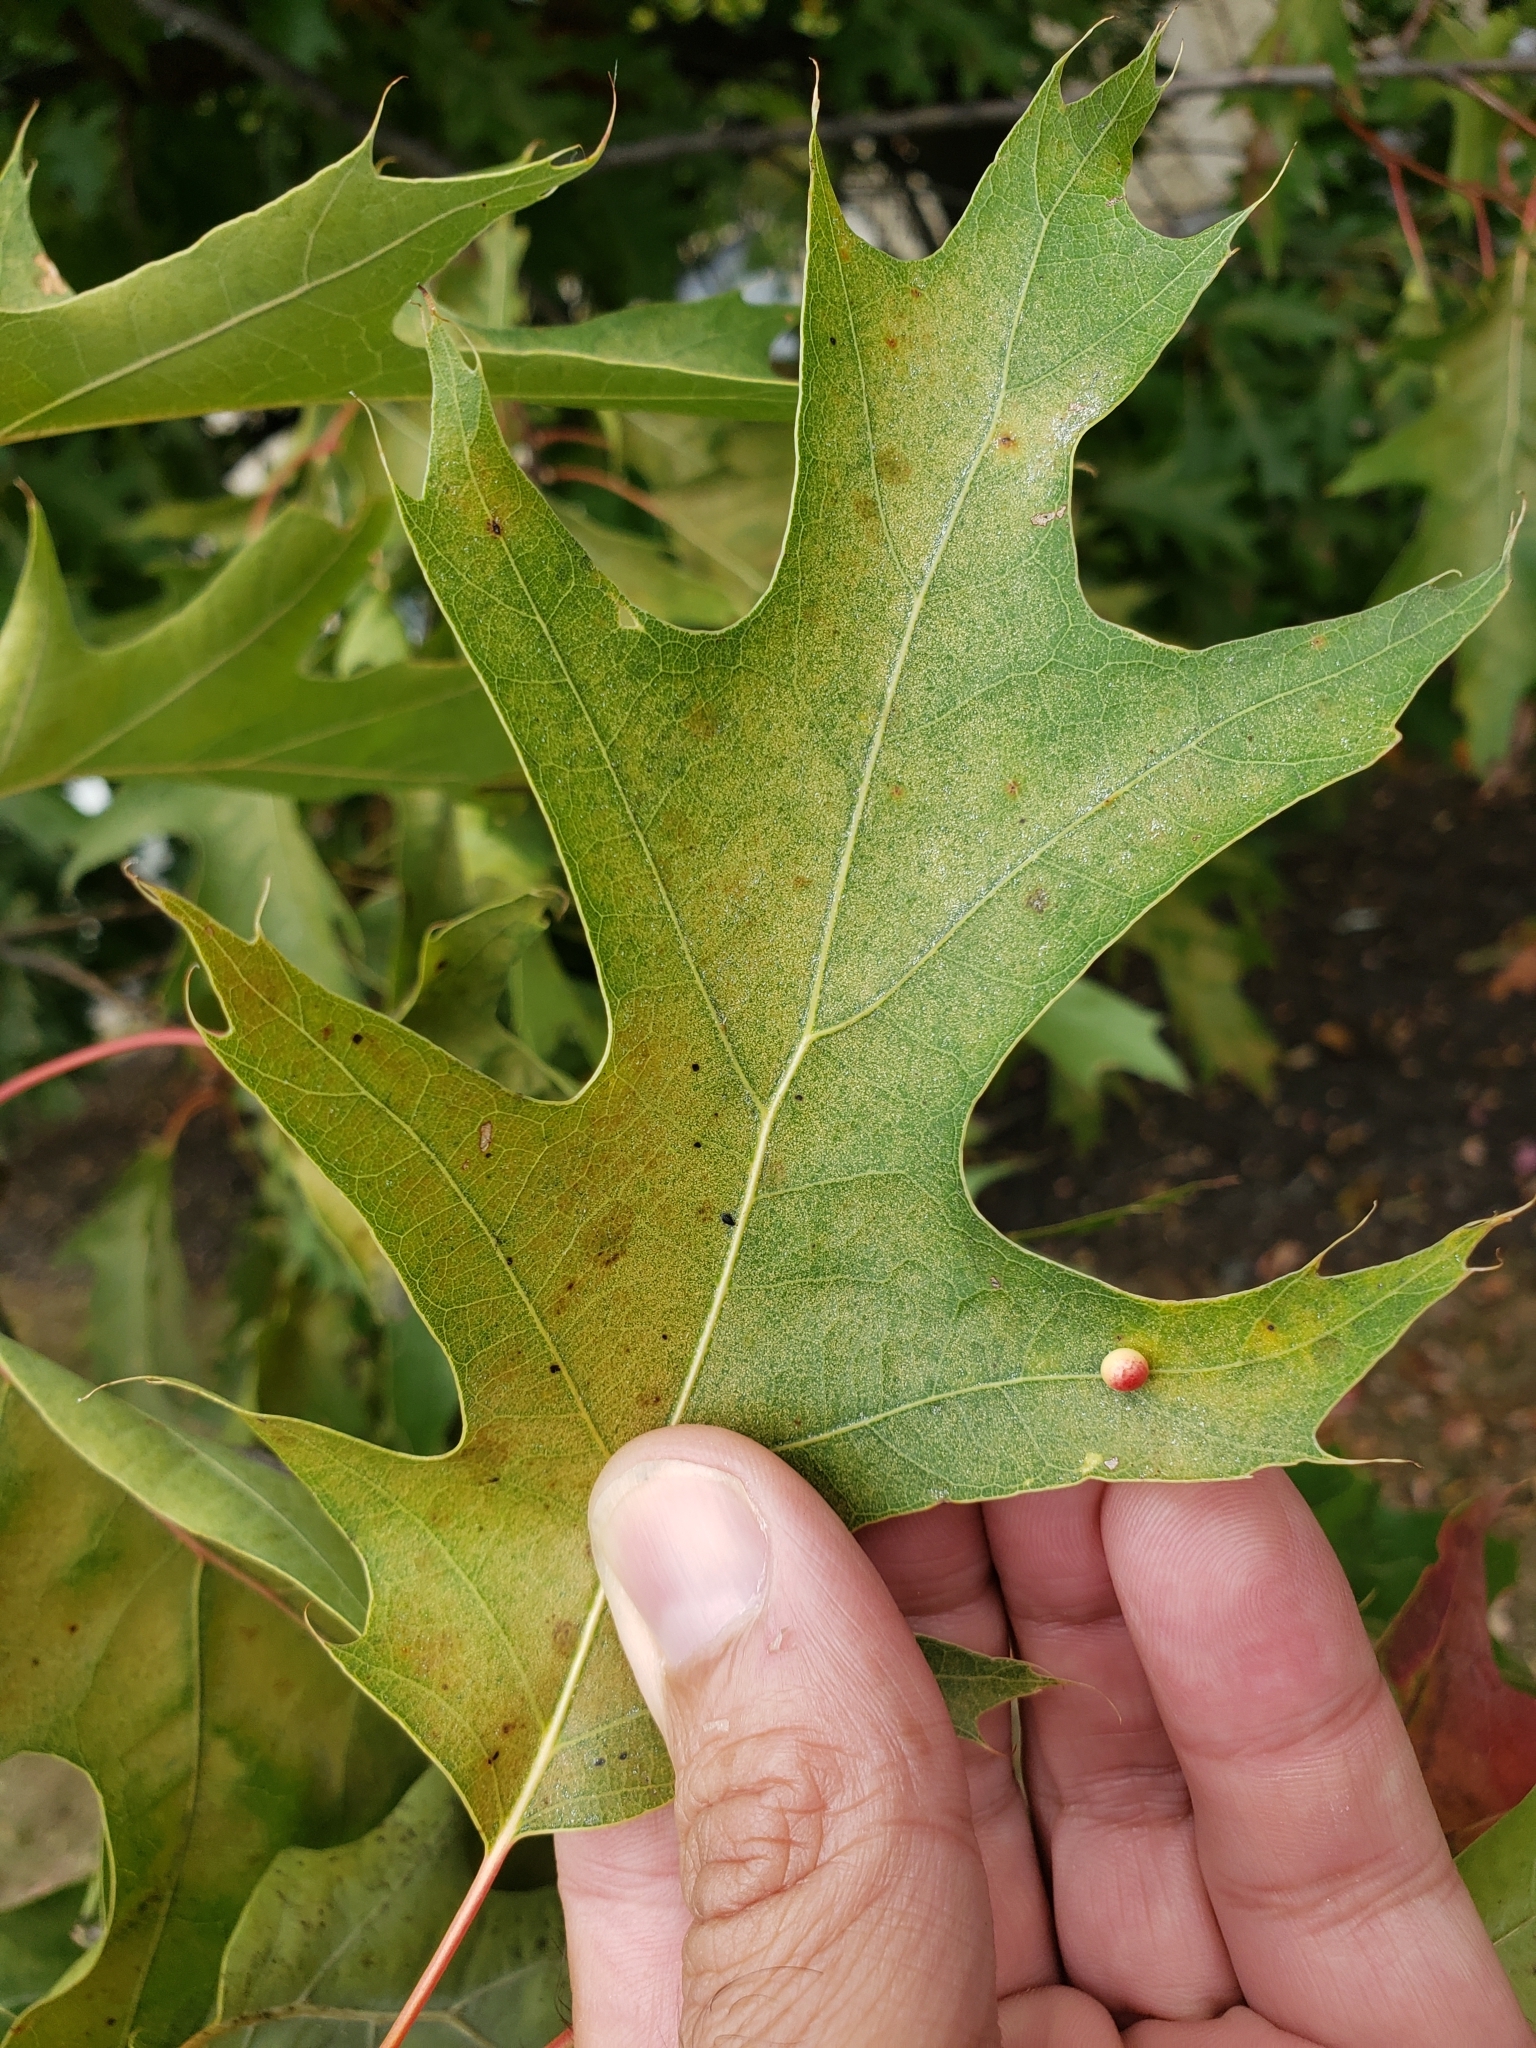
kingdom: Animalia
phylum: Arthropoda
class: Insecta
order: Hymenoptera
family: Cynipidae
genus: Zopheroteras
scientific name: Zopheroteras
